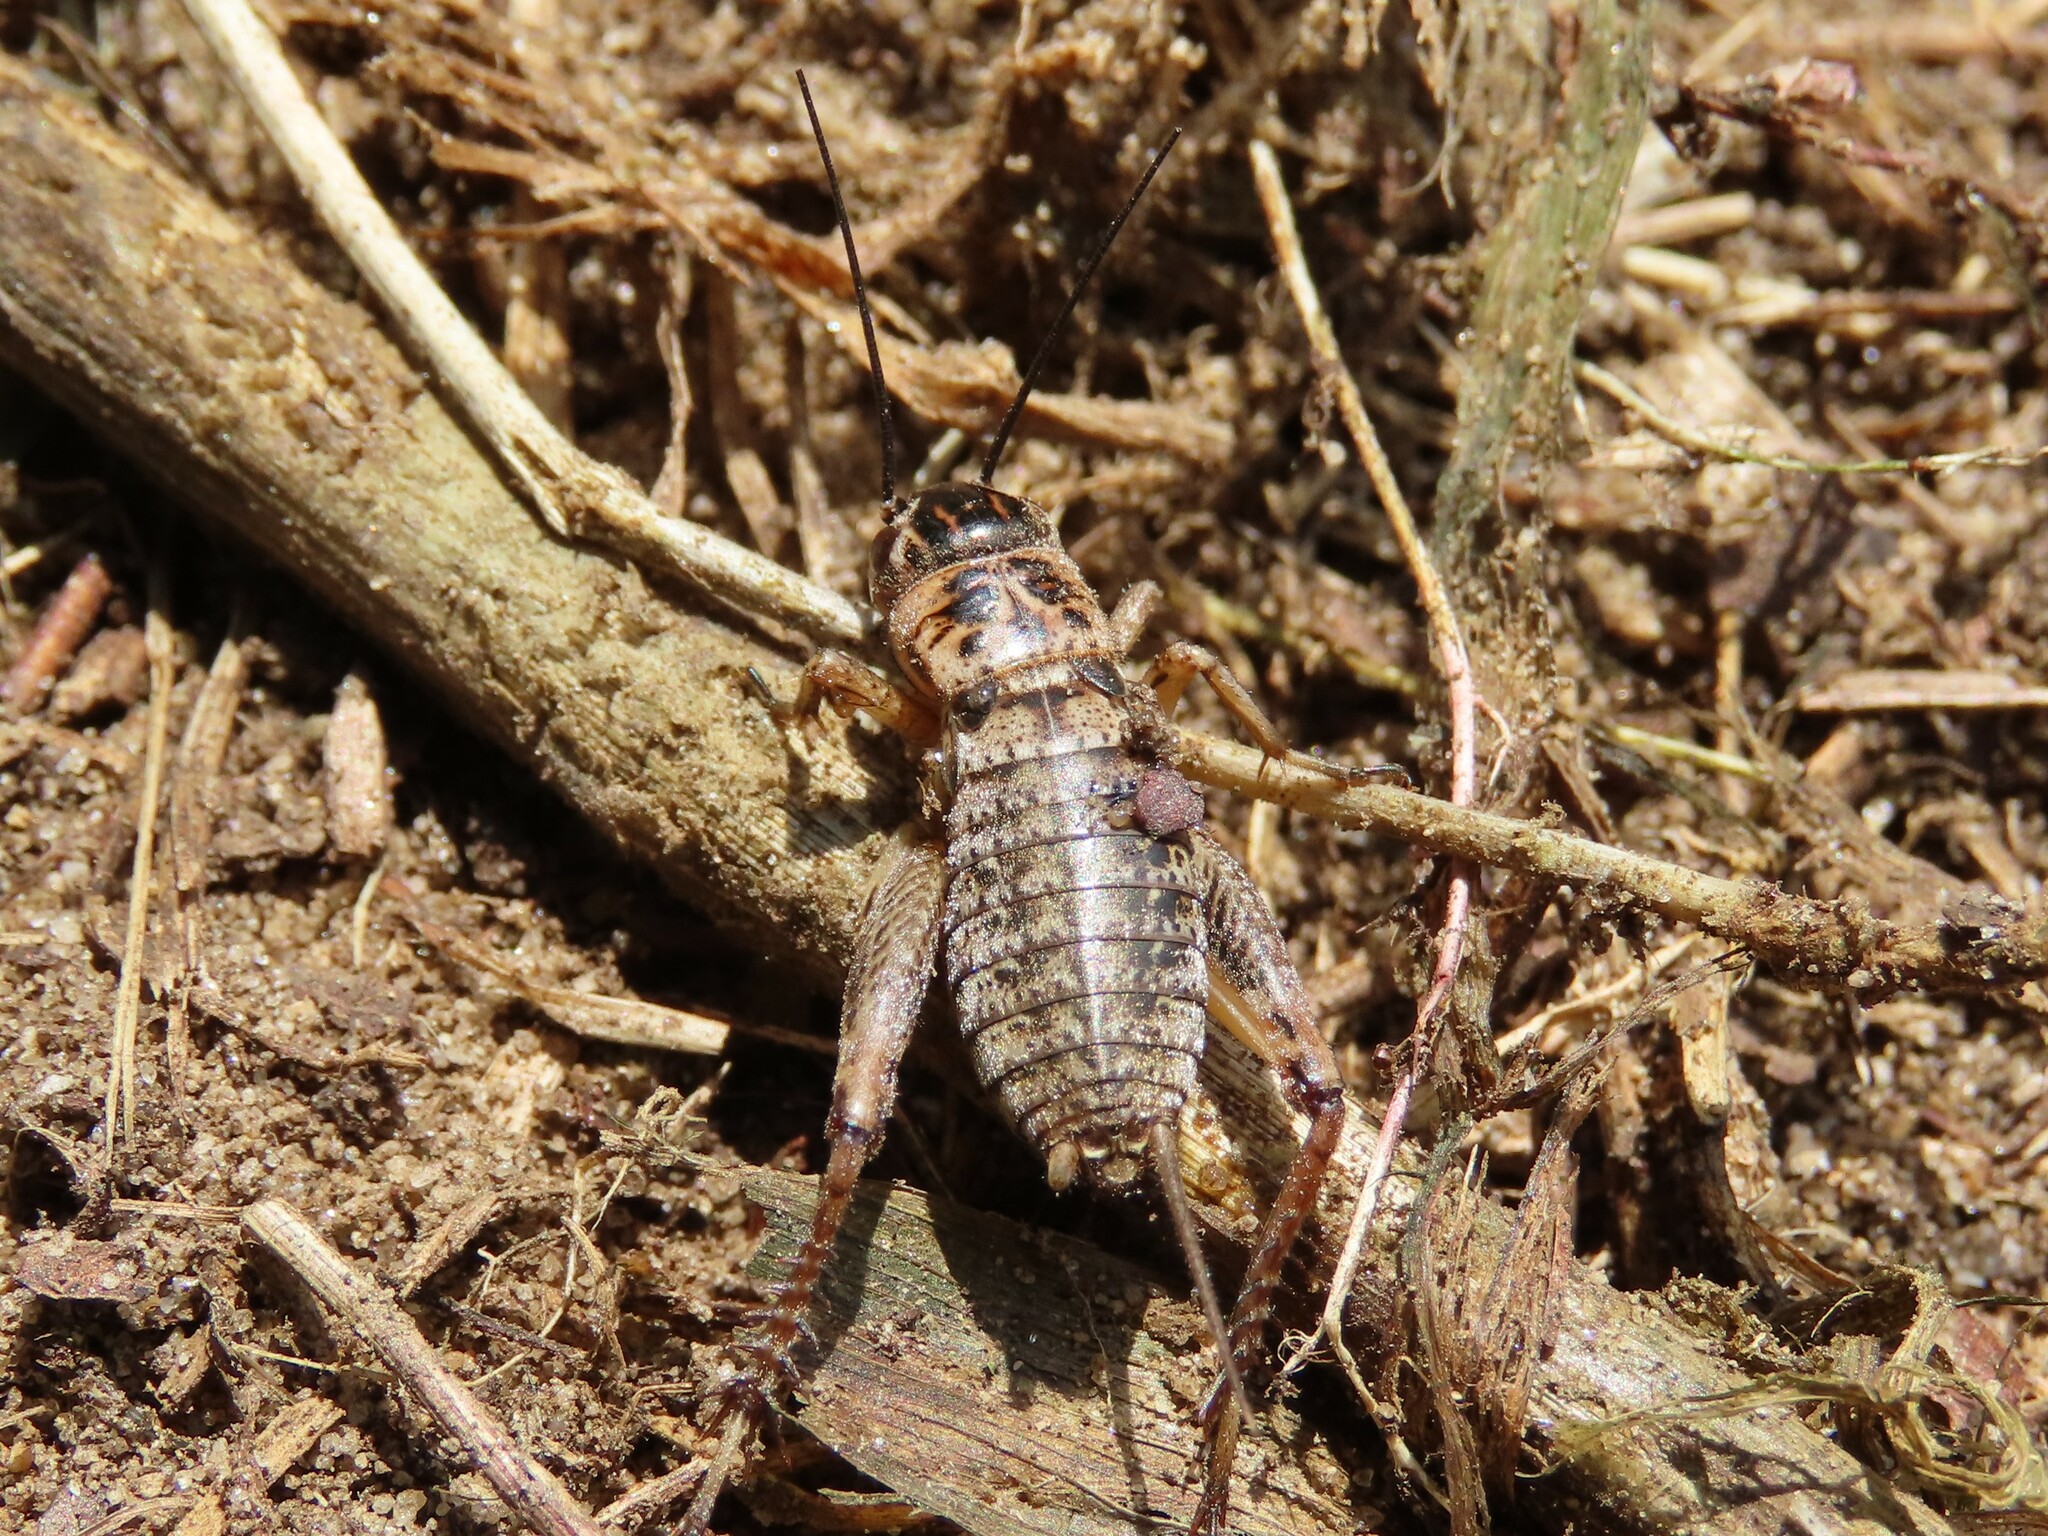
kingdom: Animalia
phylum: Arthropoda
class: Insecta
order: Orthoptera
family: Gryllidae
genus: Miogryllus
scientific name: Miogryllus verticalis
